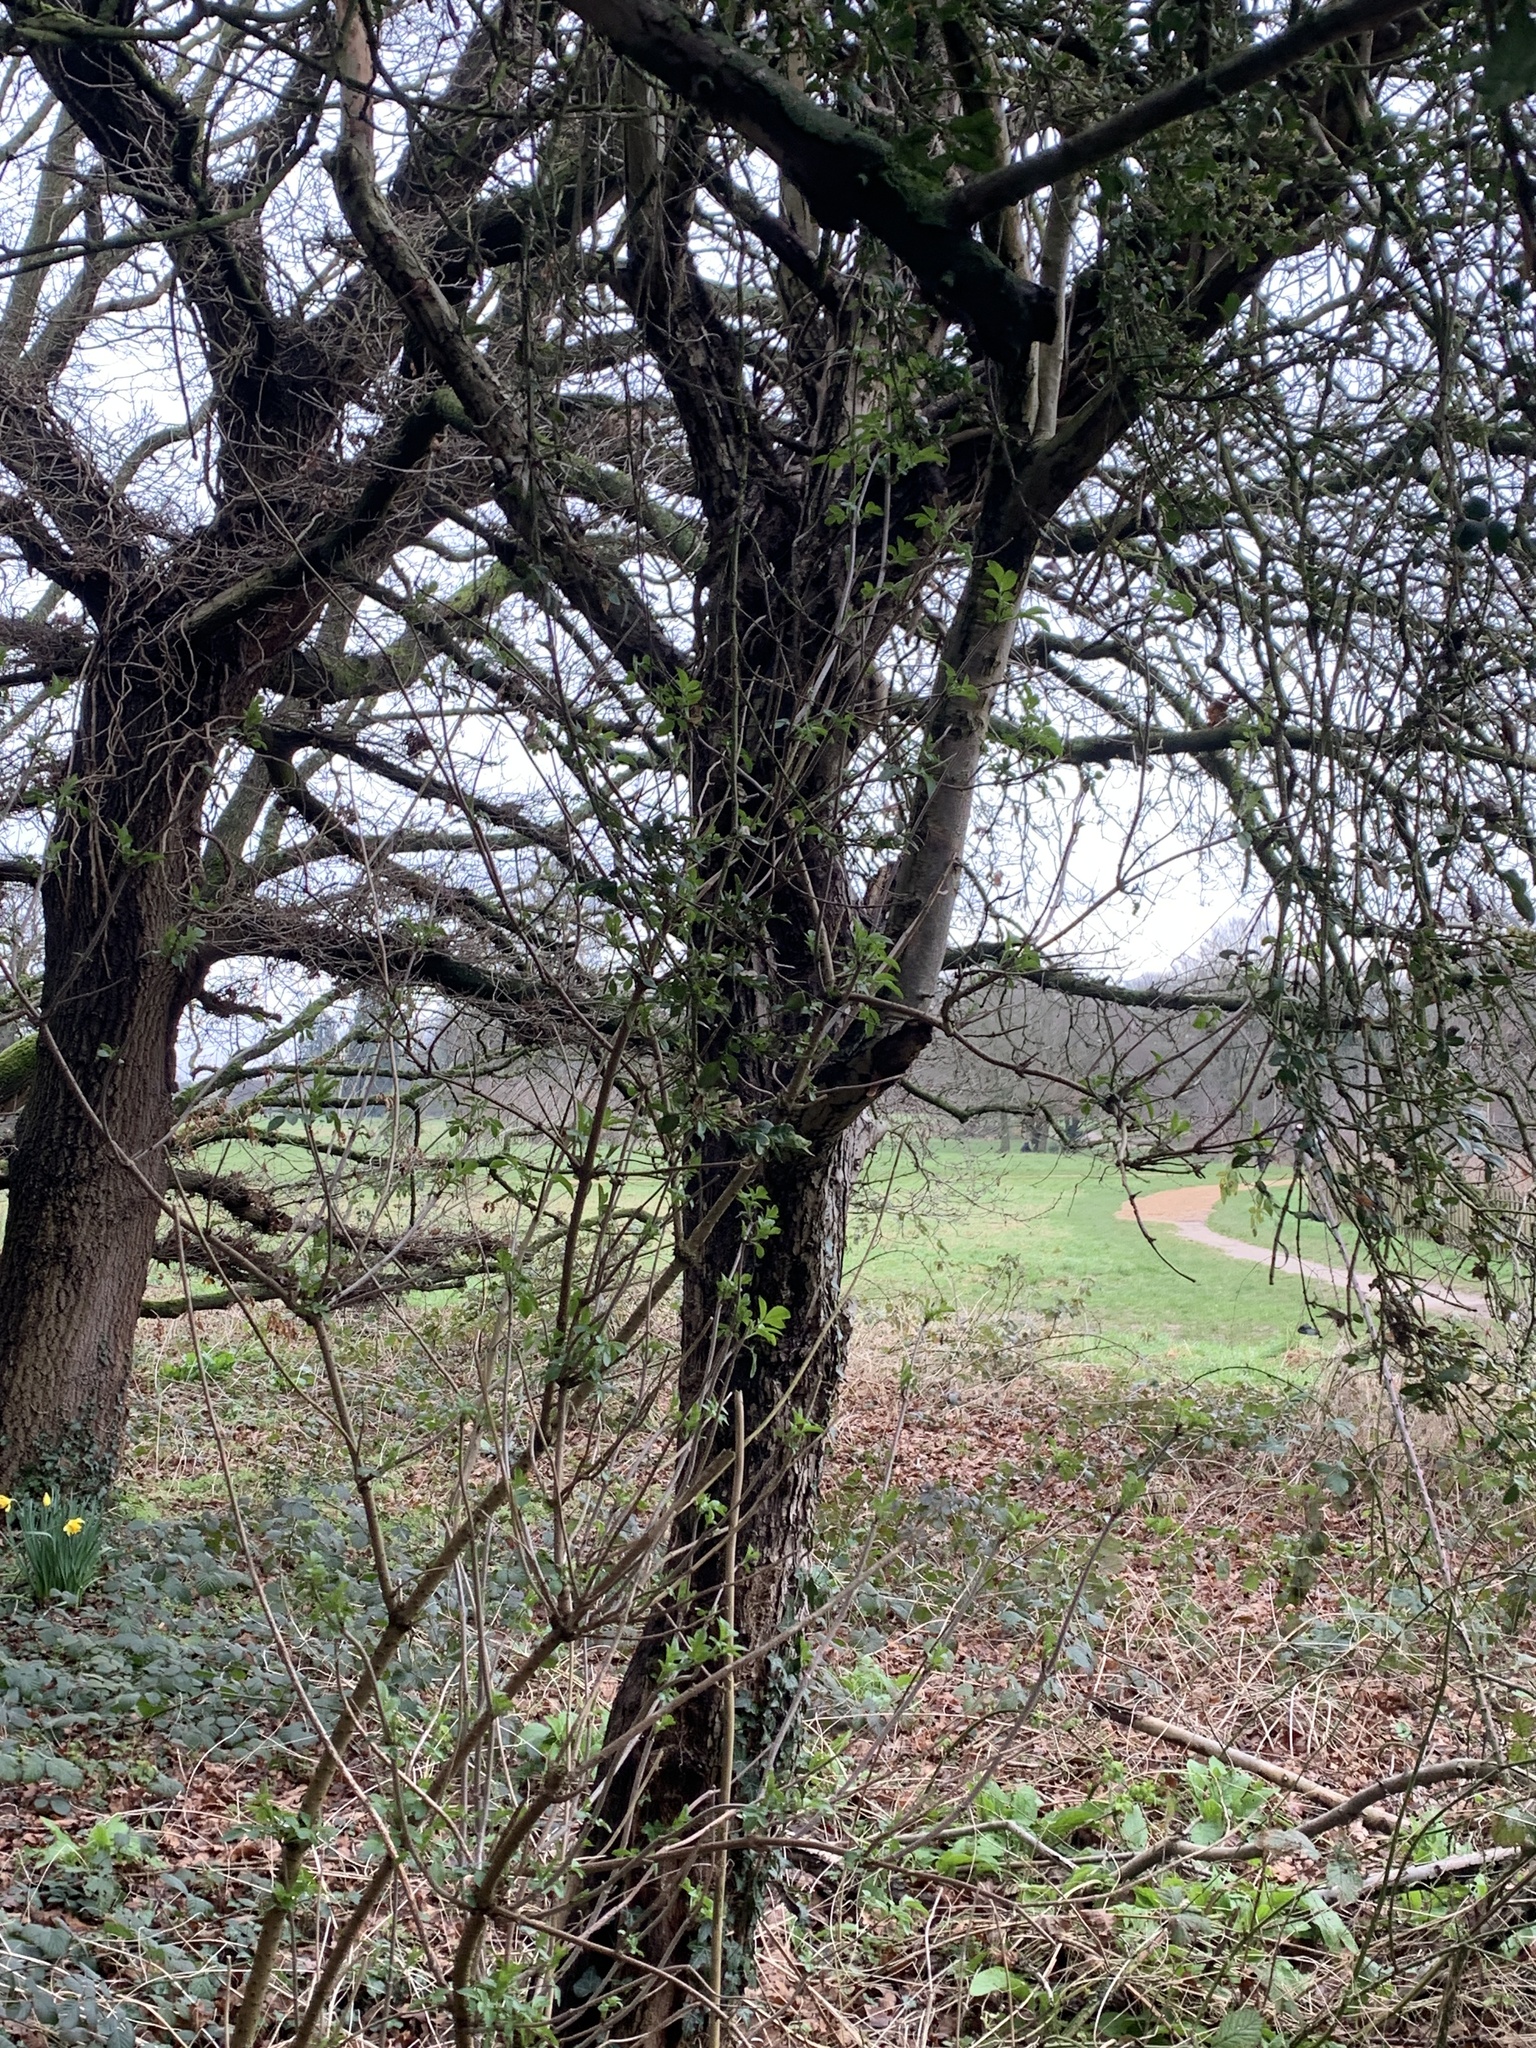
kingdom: Plantae
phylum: Tracheophyta
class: Magnoliopsida
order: Buxales
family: Buxaceae
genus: Buxus
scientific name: Buxus sempervirens
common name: Box
